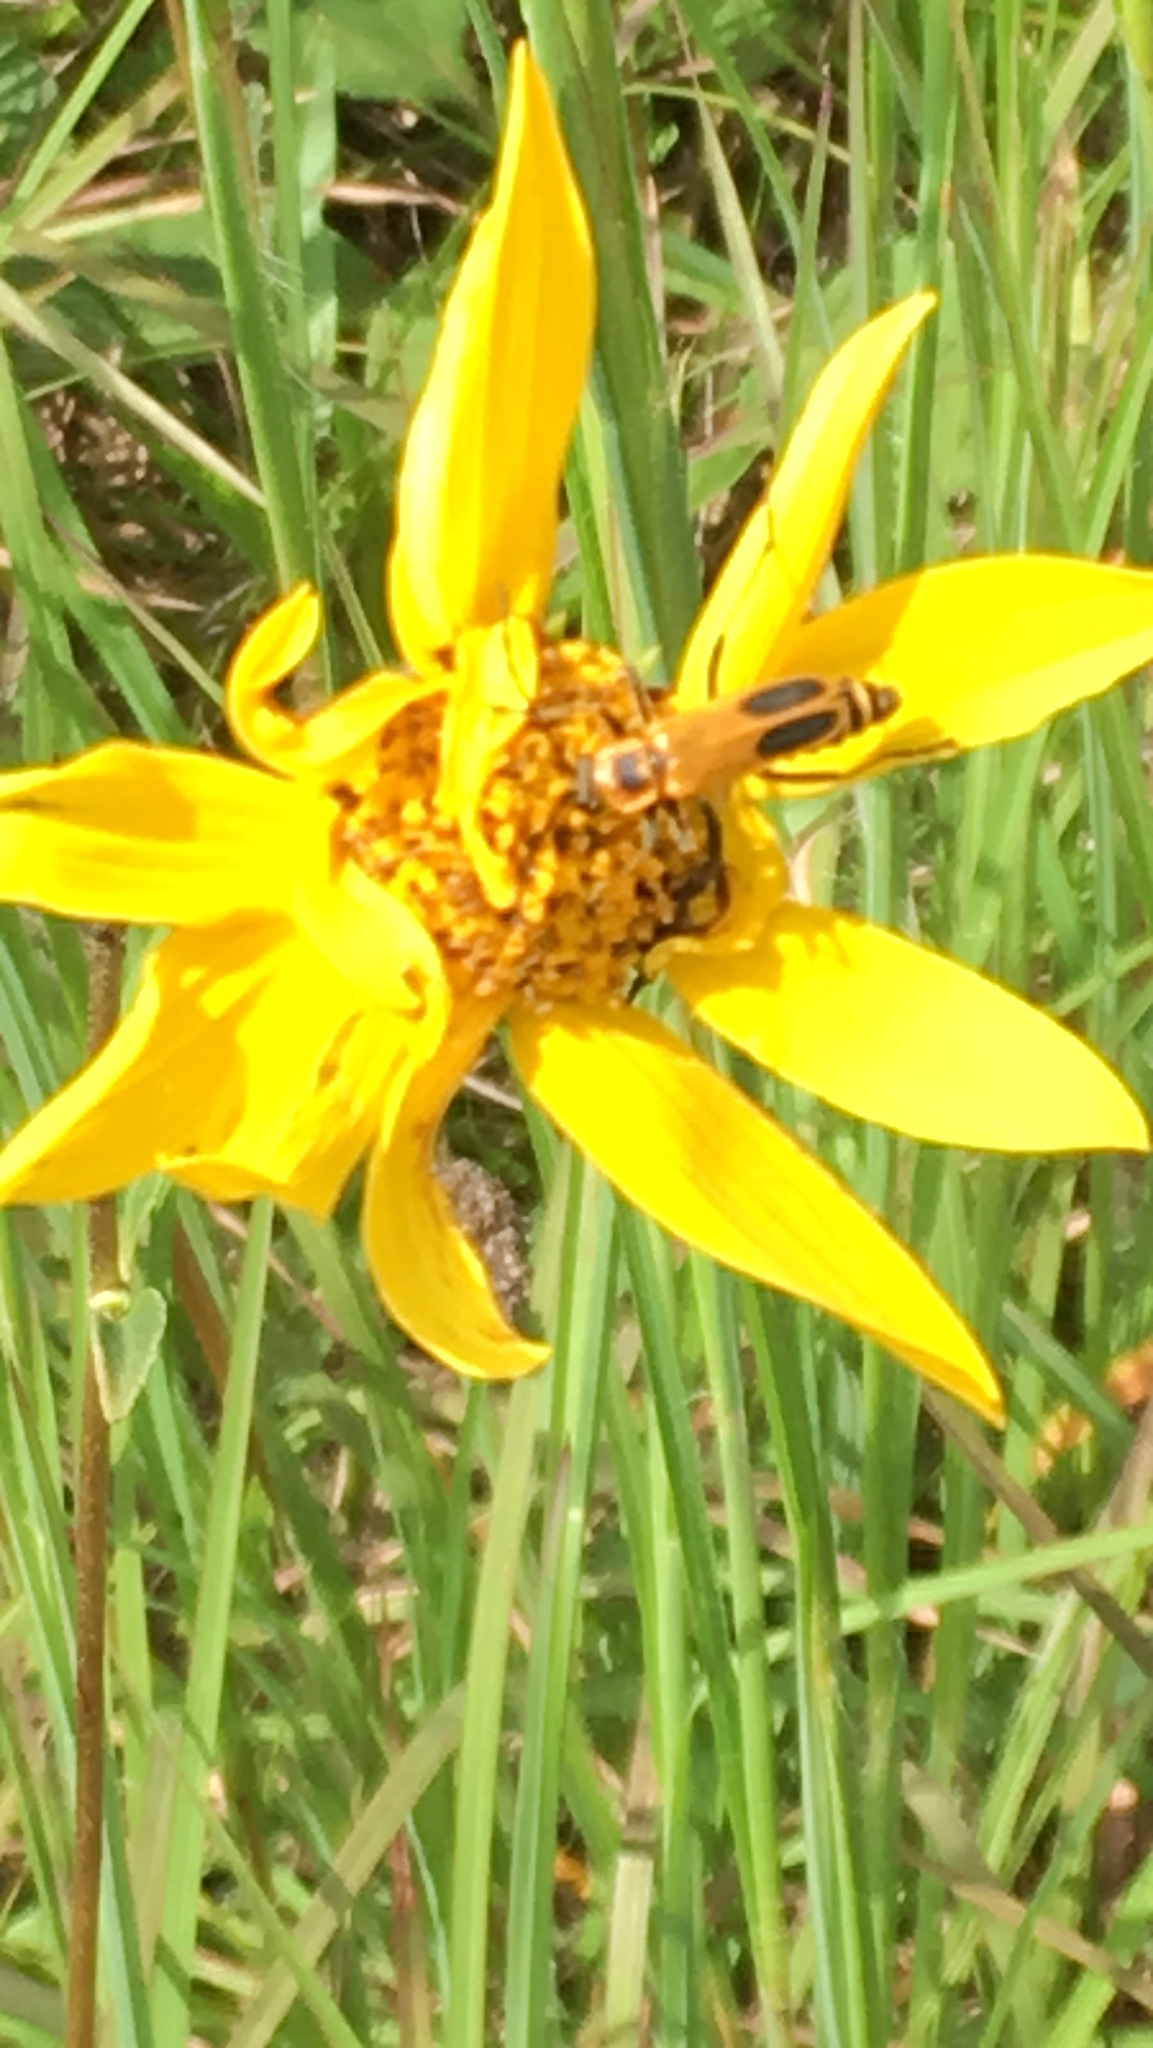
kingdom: Animalia
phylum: Arthropoda
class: Insecta
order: Coleoptera
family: Cantharidae
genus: Chauliognathus
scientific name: Chauliognathus pensylvanicus
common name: Goldenrod soldier beetle
